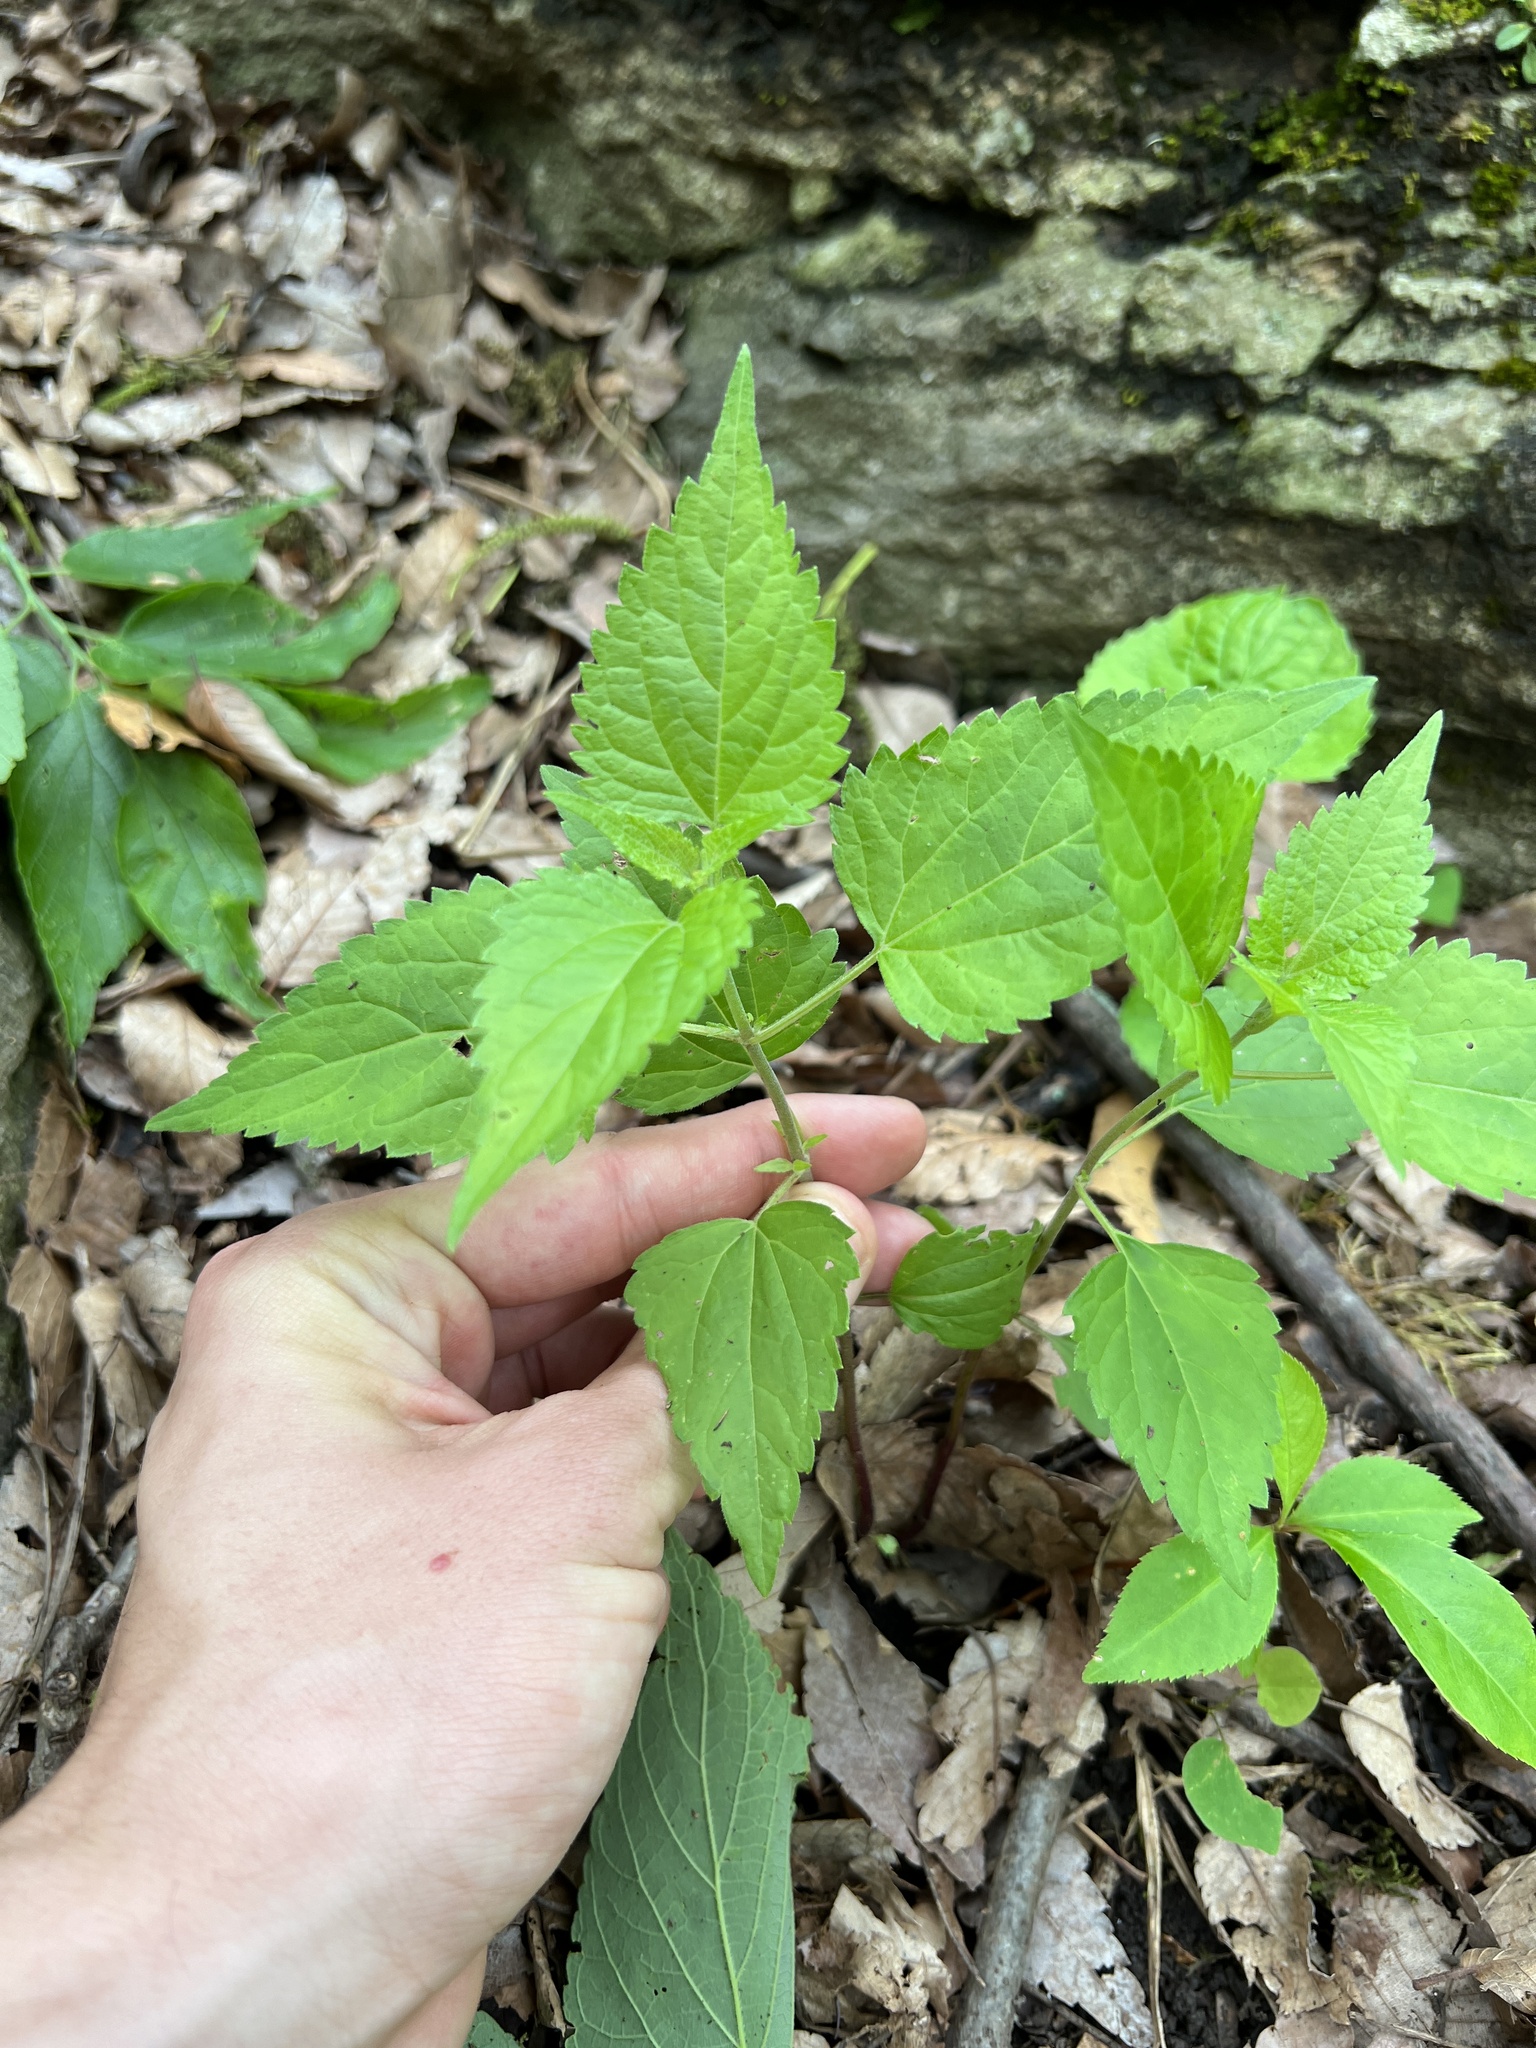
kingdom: Plantae
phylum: Tracheophyta
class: Magnoliopsida
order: Asterales
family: Asteraceae
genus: Ageratina
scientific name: Ageratina altissima
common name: White snakeroot
